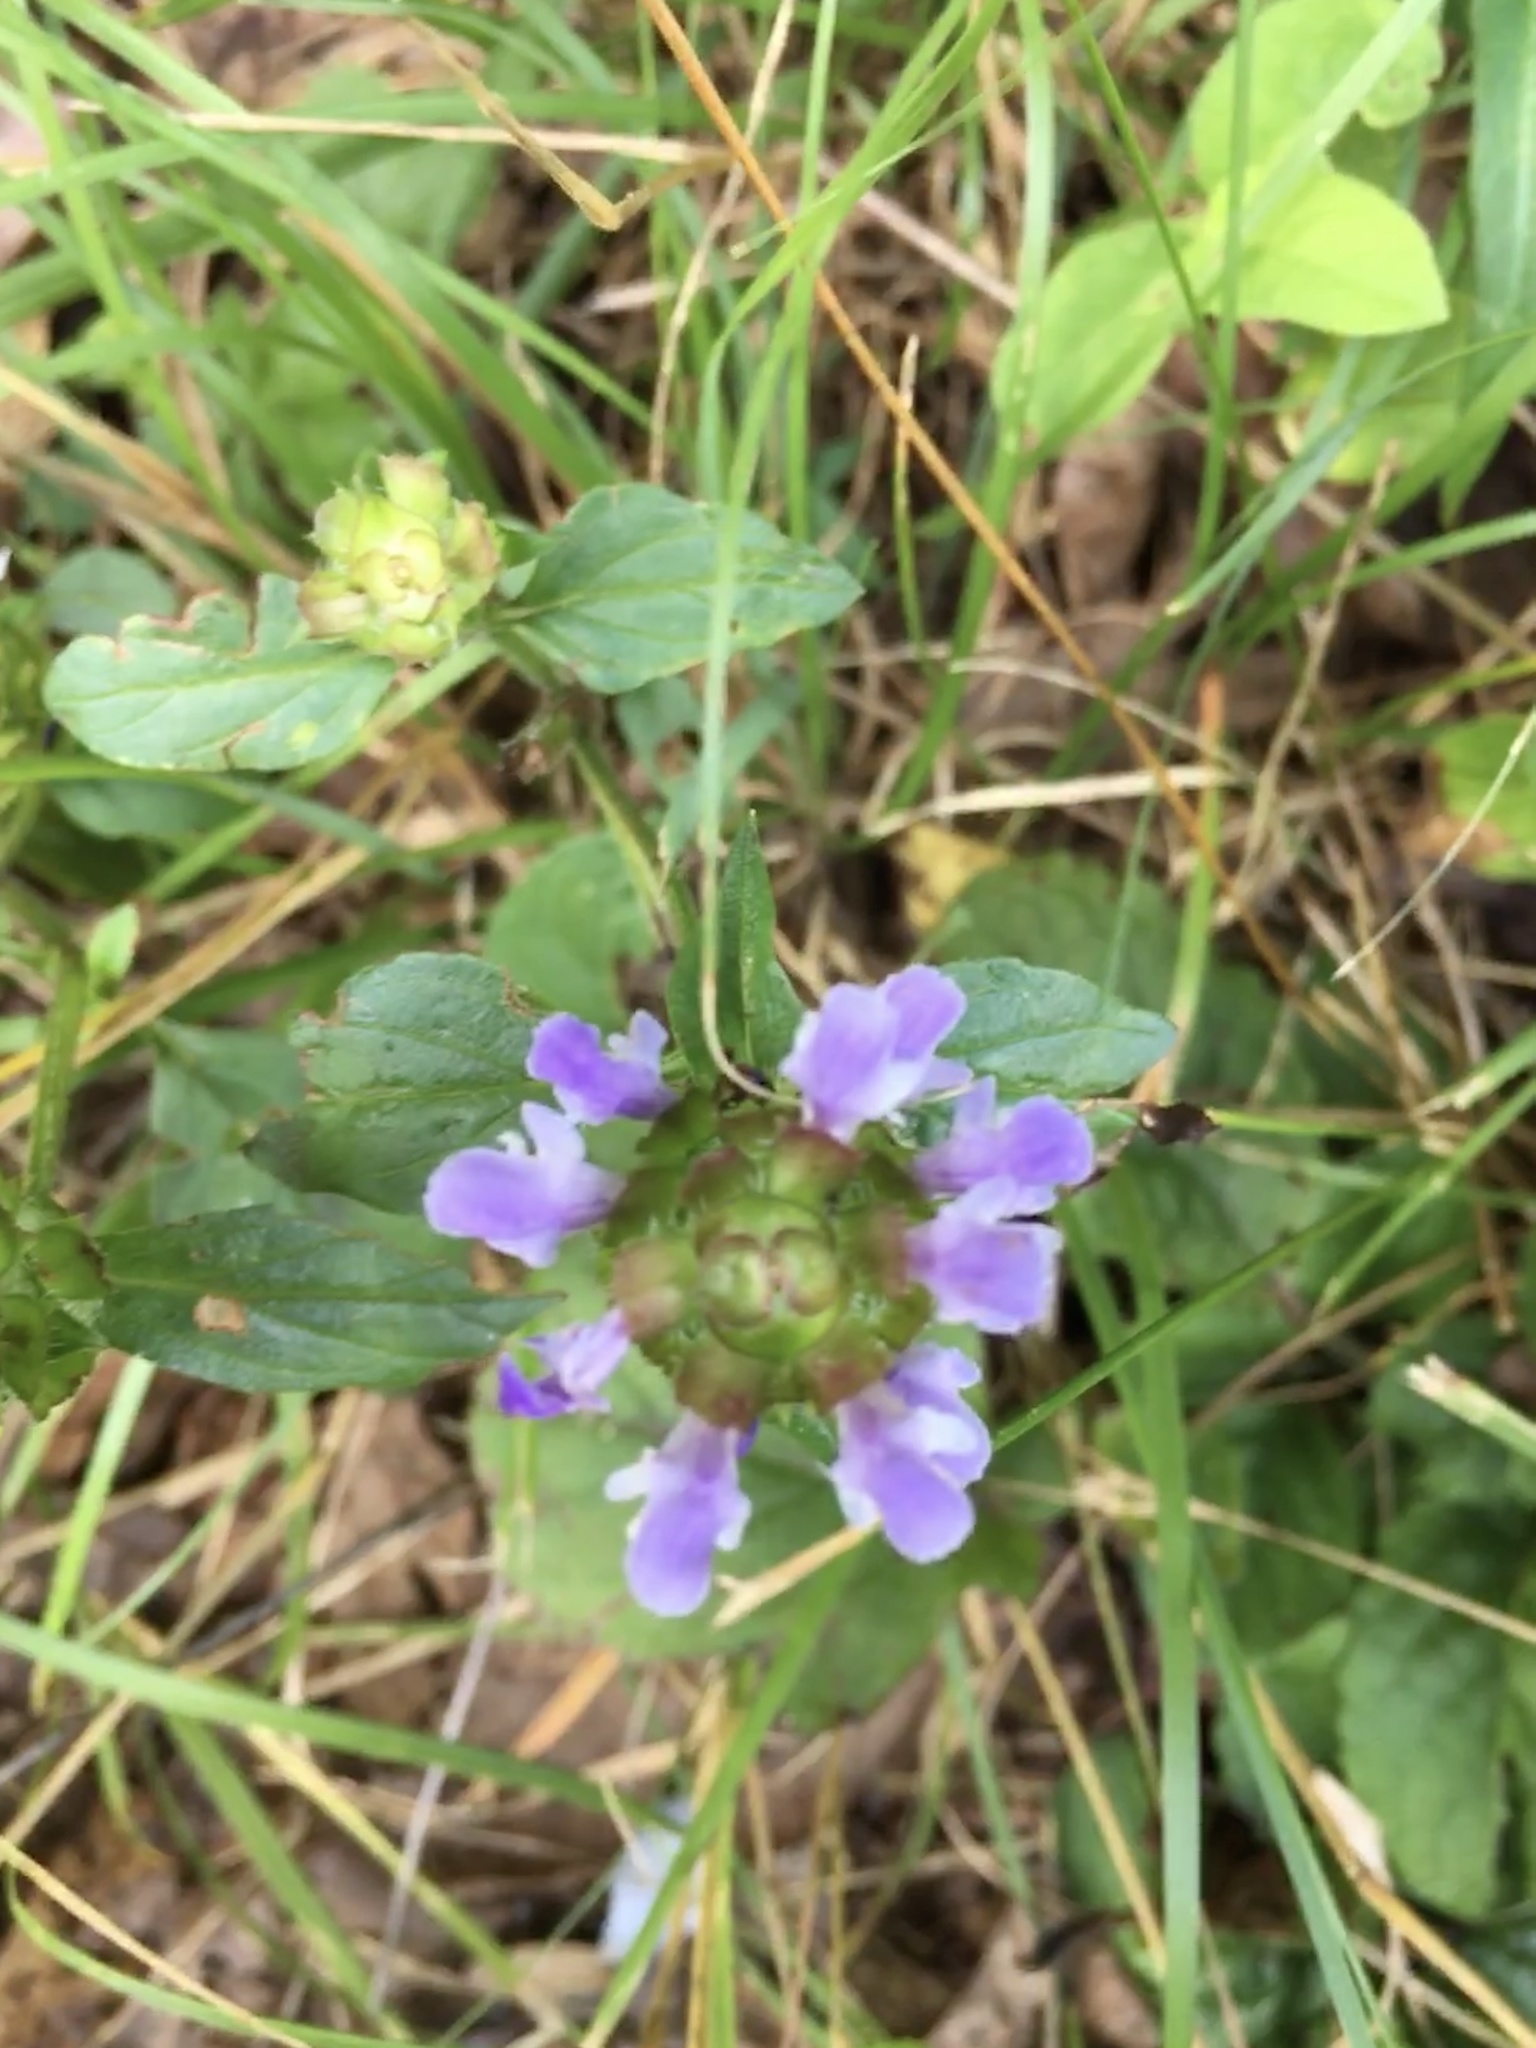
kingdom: Plantae
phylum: Tracheophyta
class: Magnoliopsida
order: Lamiales
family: Lamiaceae
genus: Prunella
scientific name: Prunella vulgaris
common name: Heal-all
